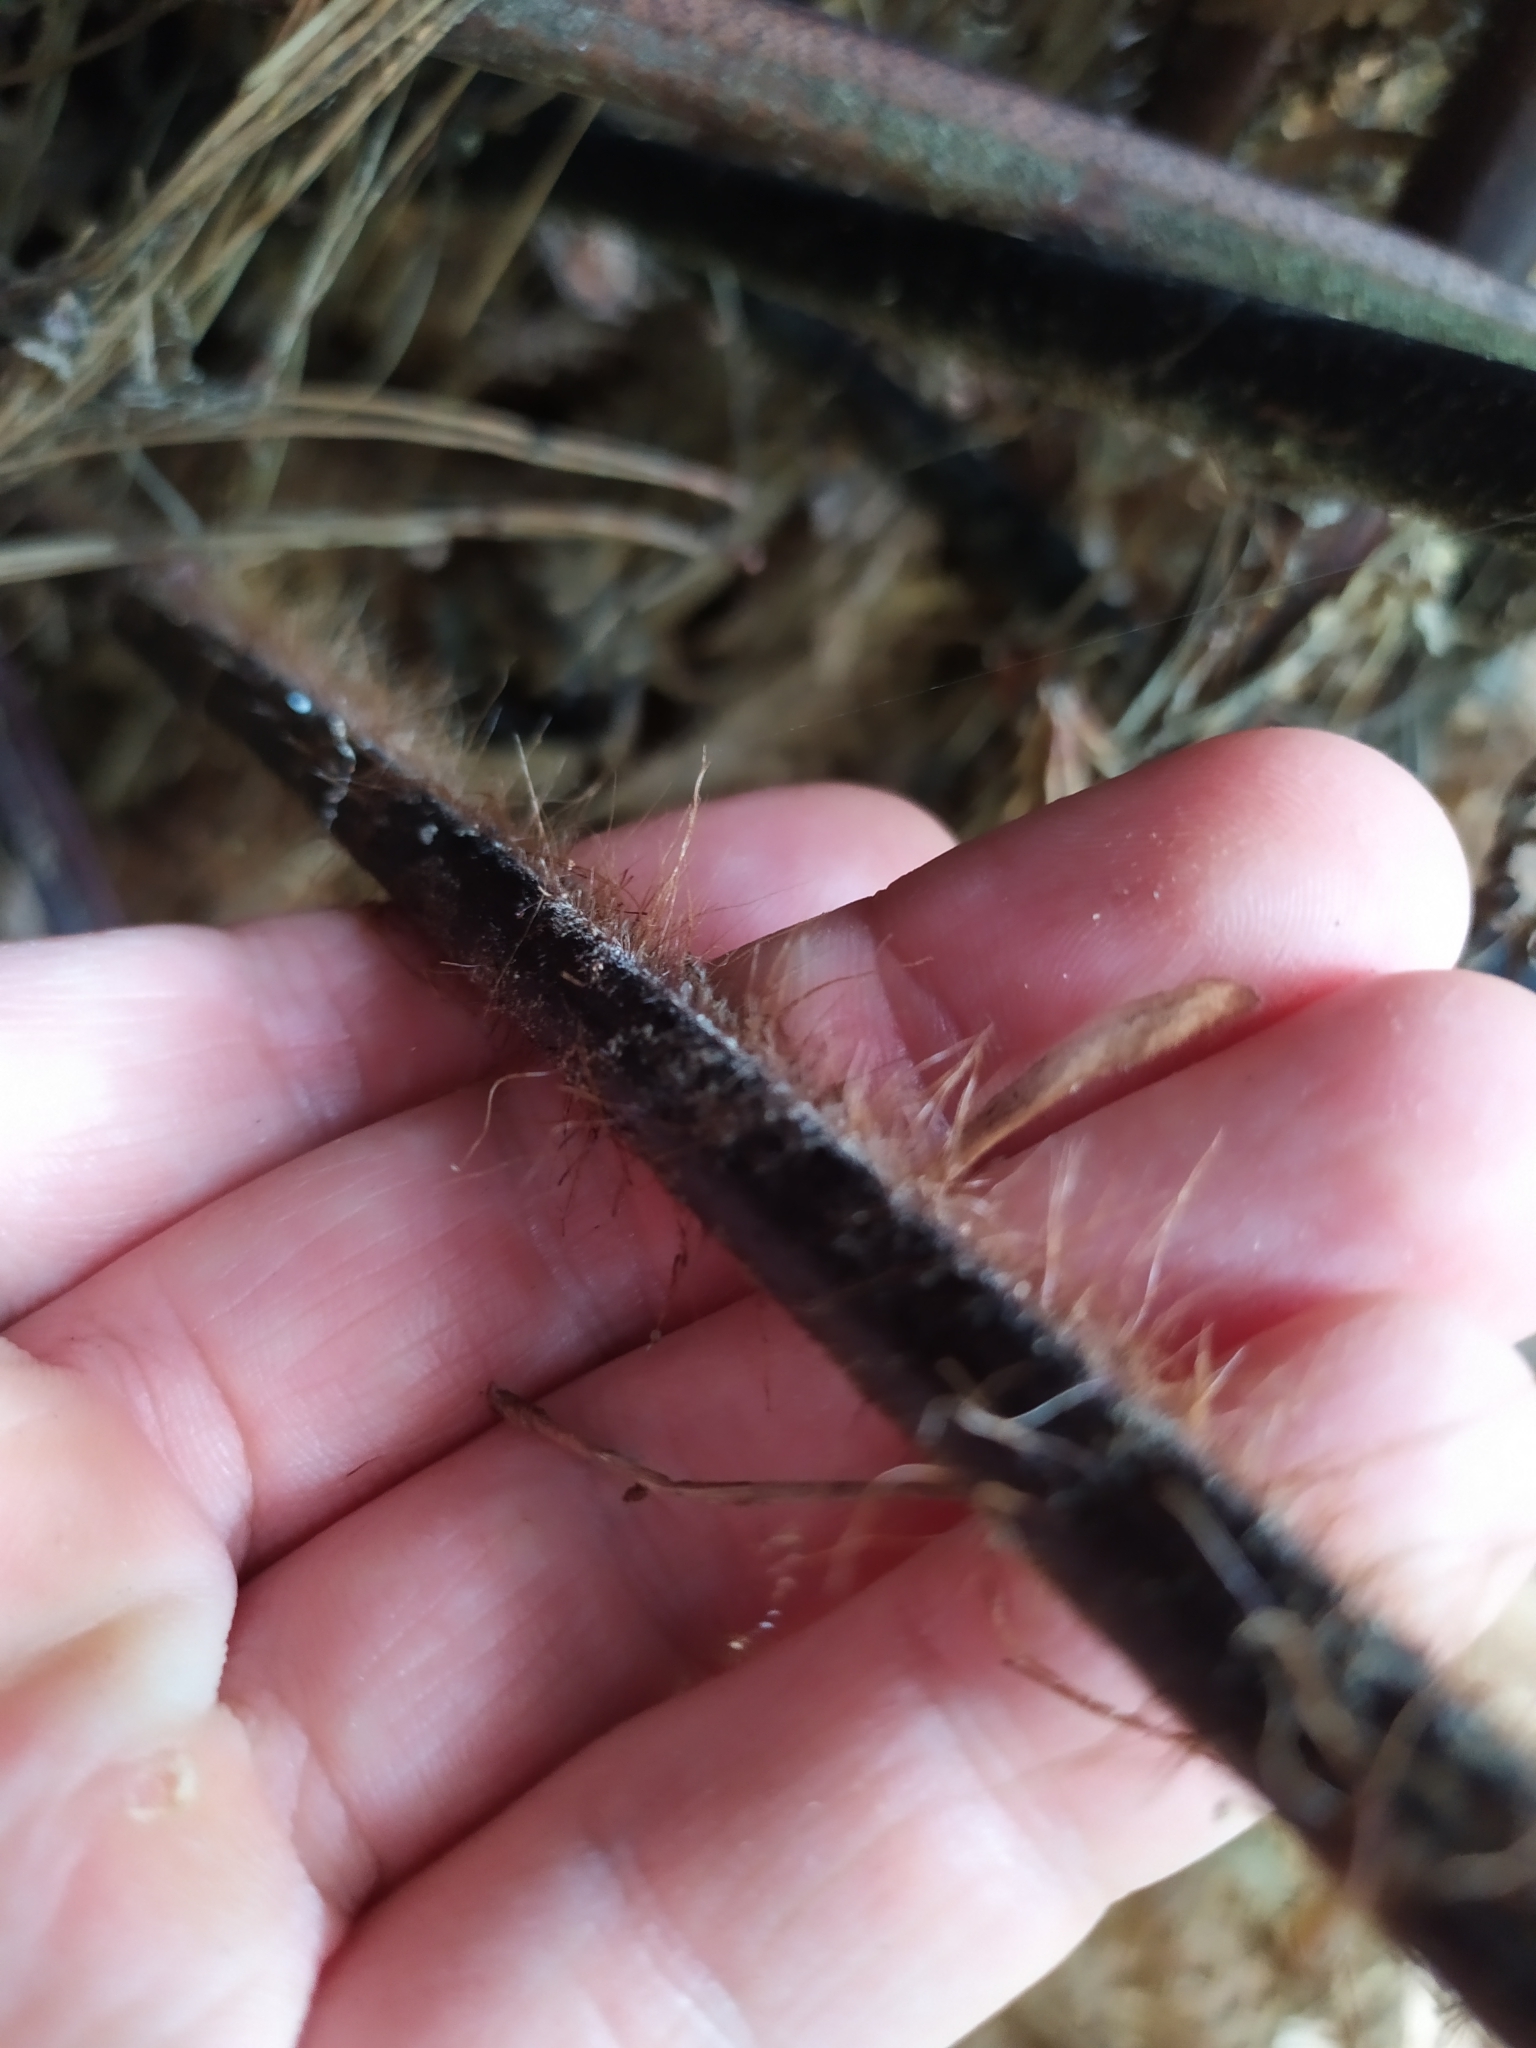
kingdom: Plantae
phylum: Tracheophyta
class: Polypodiopsida
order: Cyatheales
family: Dicksoniaceae
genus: Dicksonia
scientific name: Dicksonia squarrosa
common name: Hard treefern
